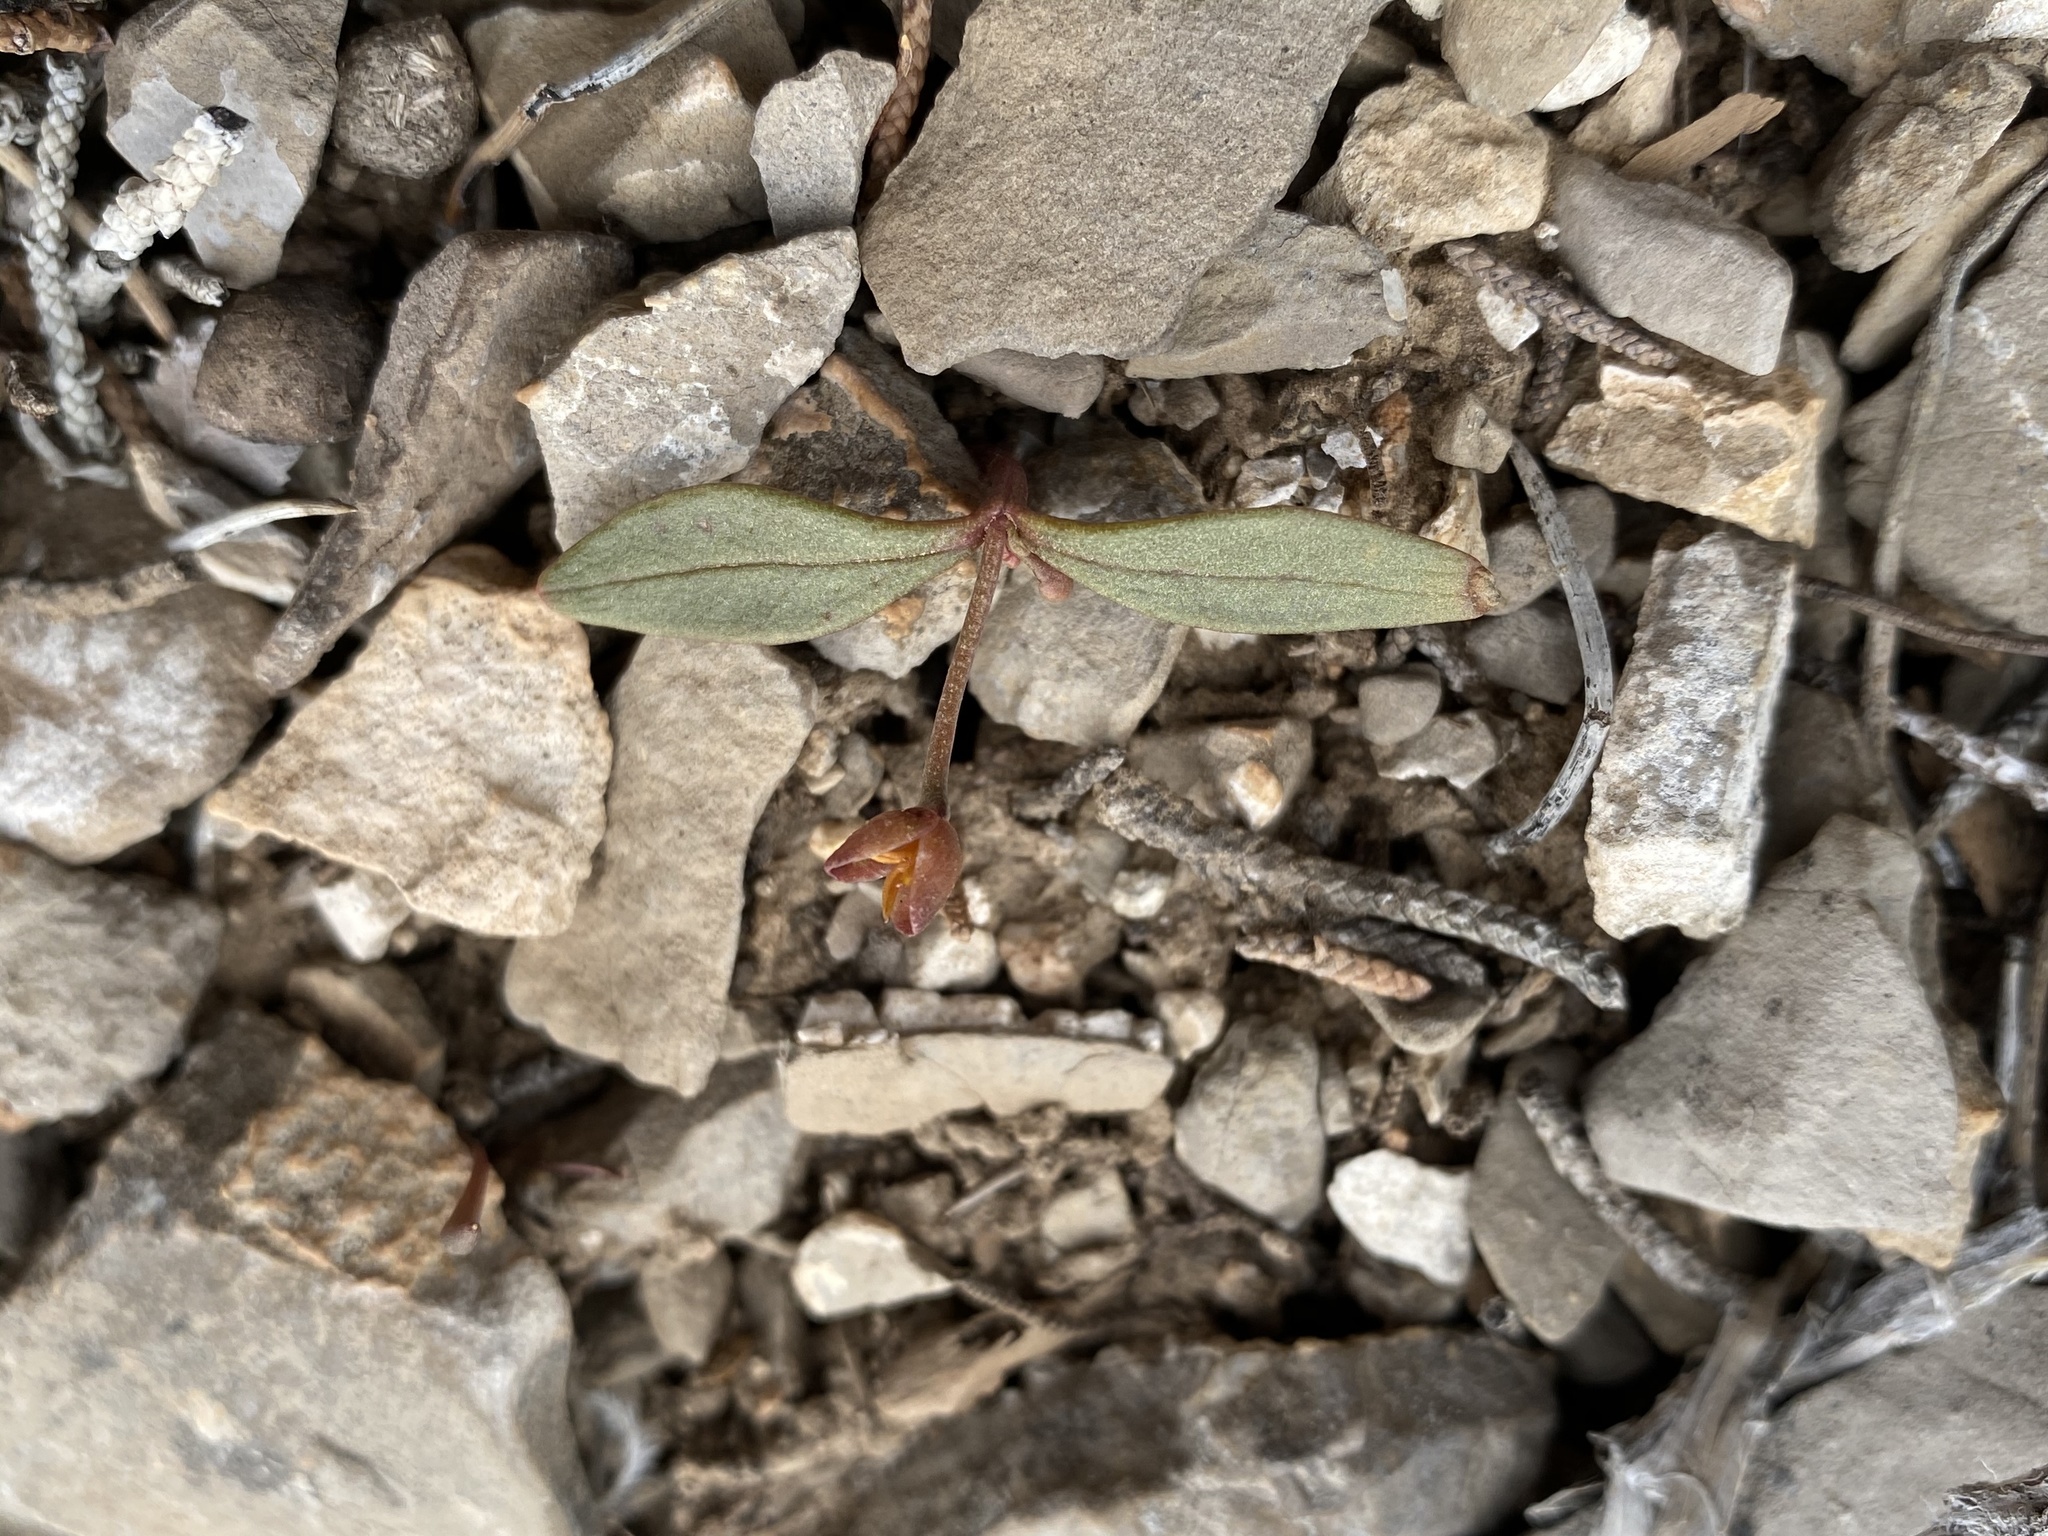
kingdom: Plantae
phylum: Tracheophyta
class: Magnoliopsida
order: Caryophyllales
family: Montiaceae
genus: Claytonia
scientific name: Claytonia panamintensis
